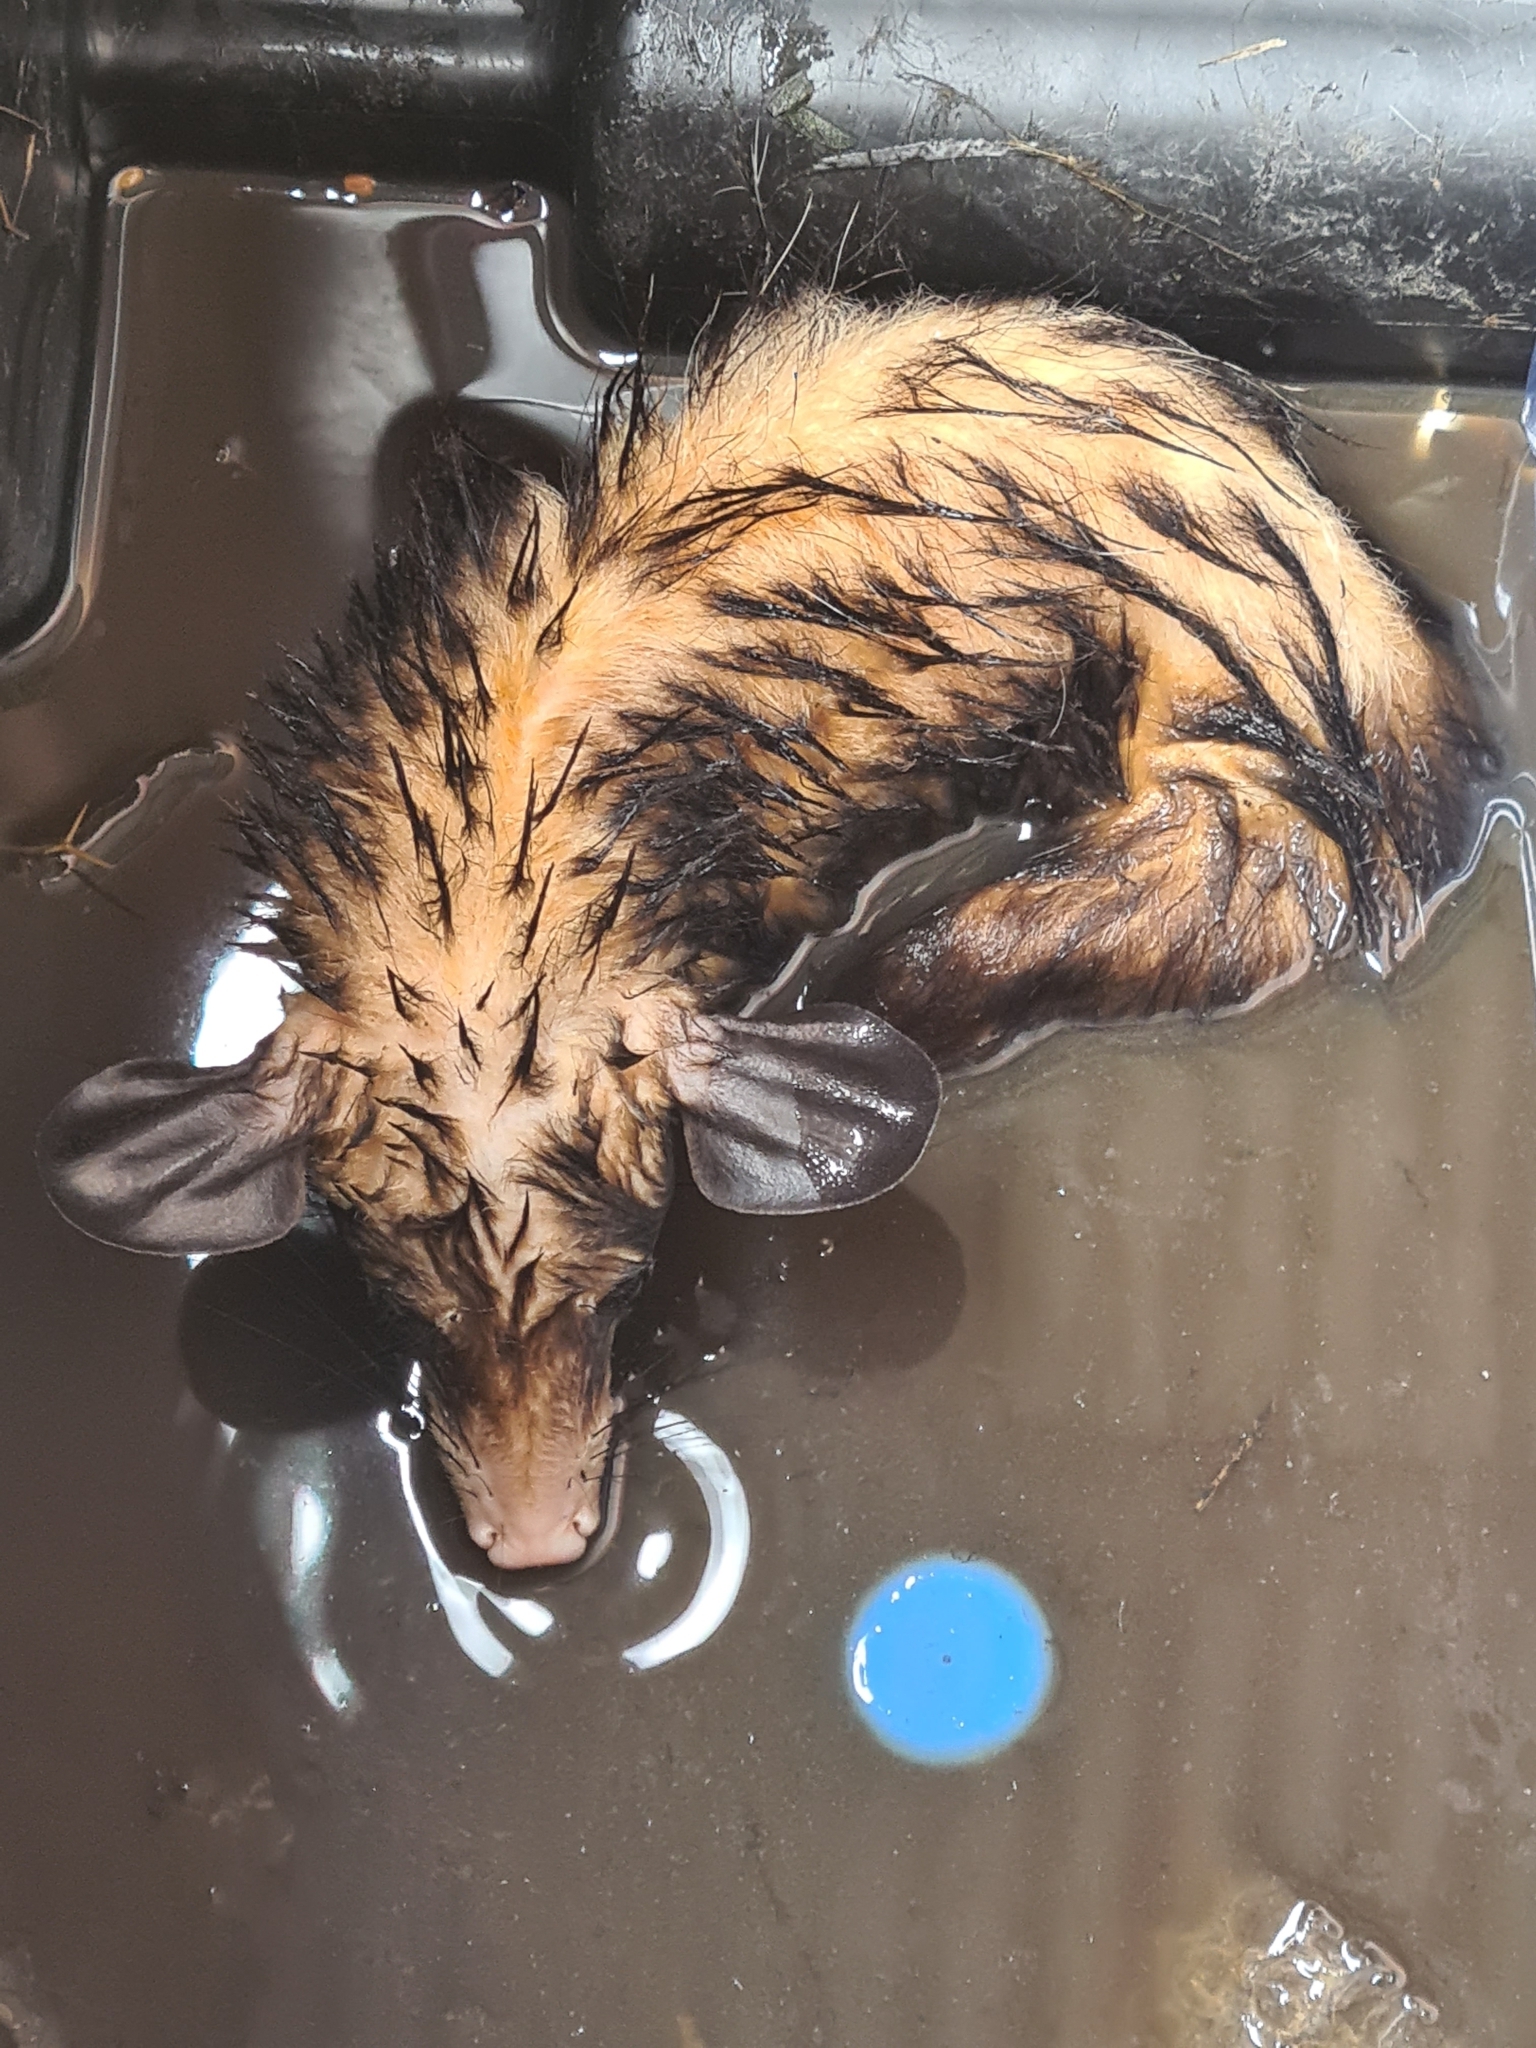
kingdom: Animalia
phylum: Chordata
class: Mammalia
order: Didelphimorphia
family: Didelphidae
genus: Didelphis
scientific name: Didelphis marsupialis
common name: Common opossum
